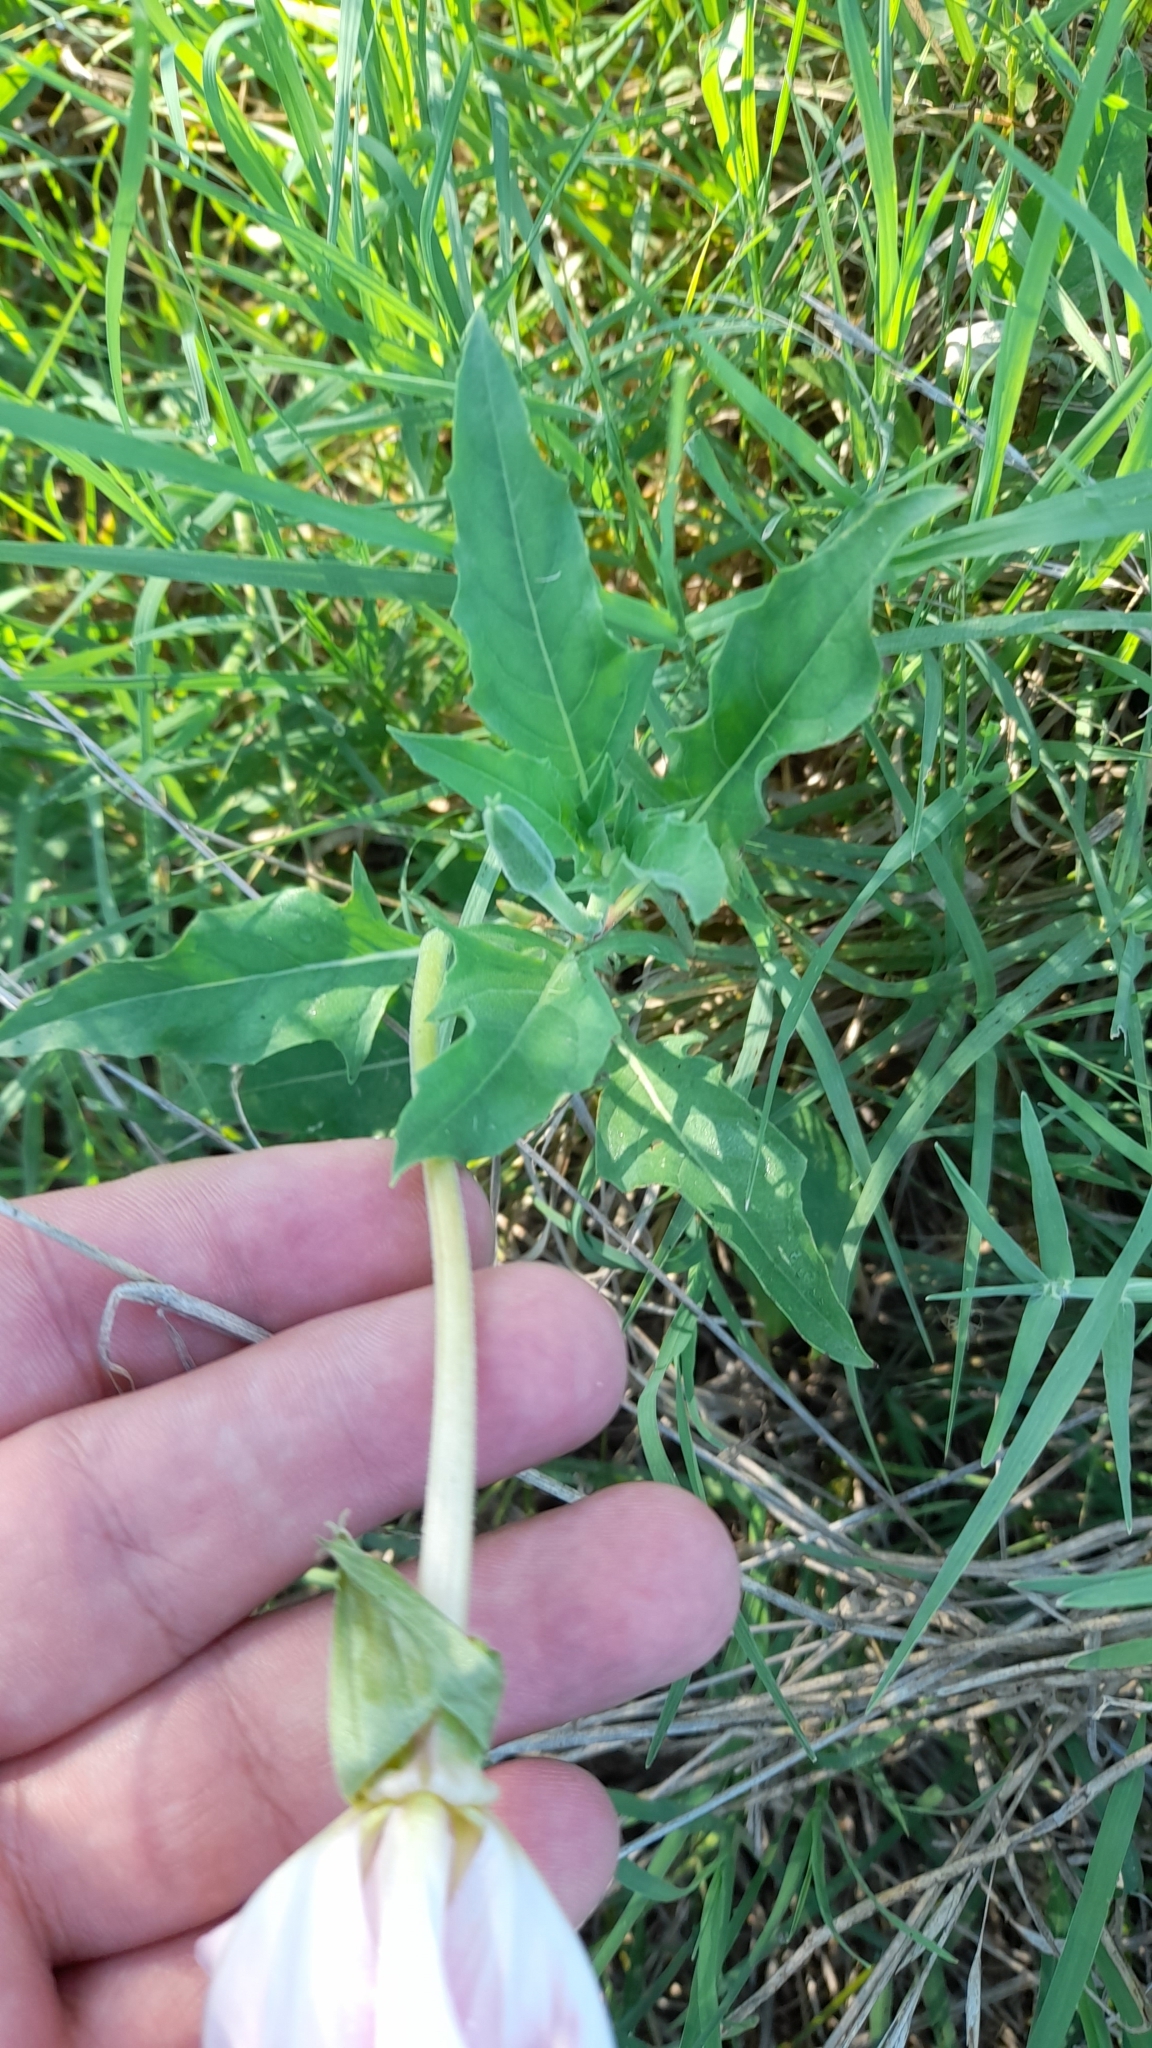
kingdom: Plantae
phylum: Tracheophyta
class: Magnoliopsida
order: Myrtales
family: Onagraceae
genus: Oenothera
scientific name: Oenothera centaurifolia
